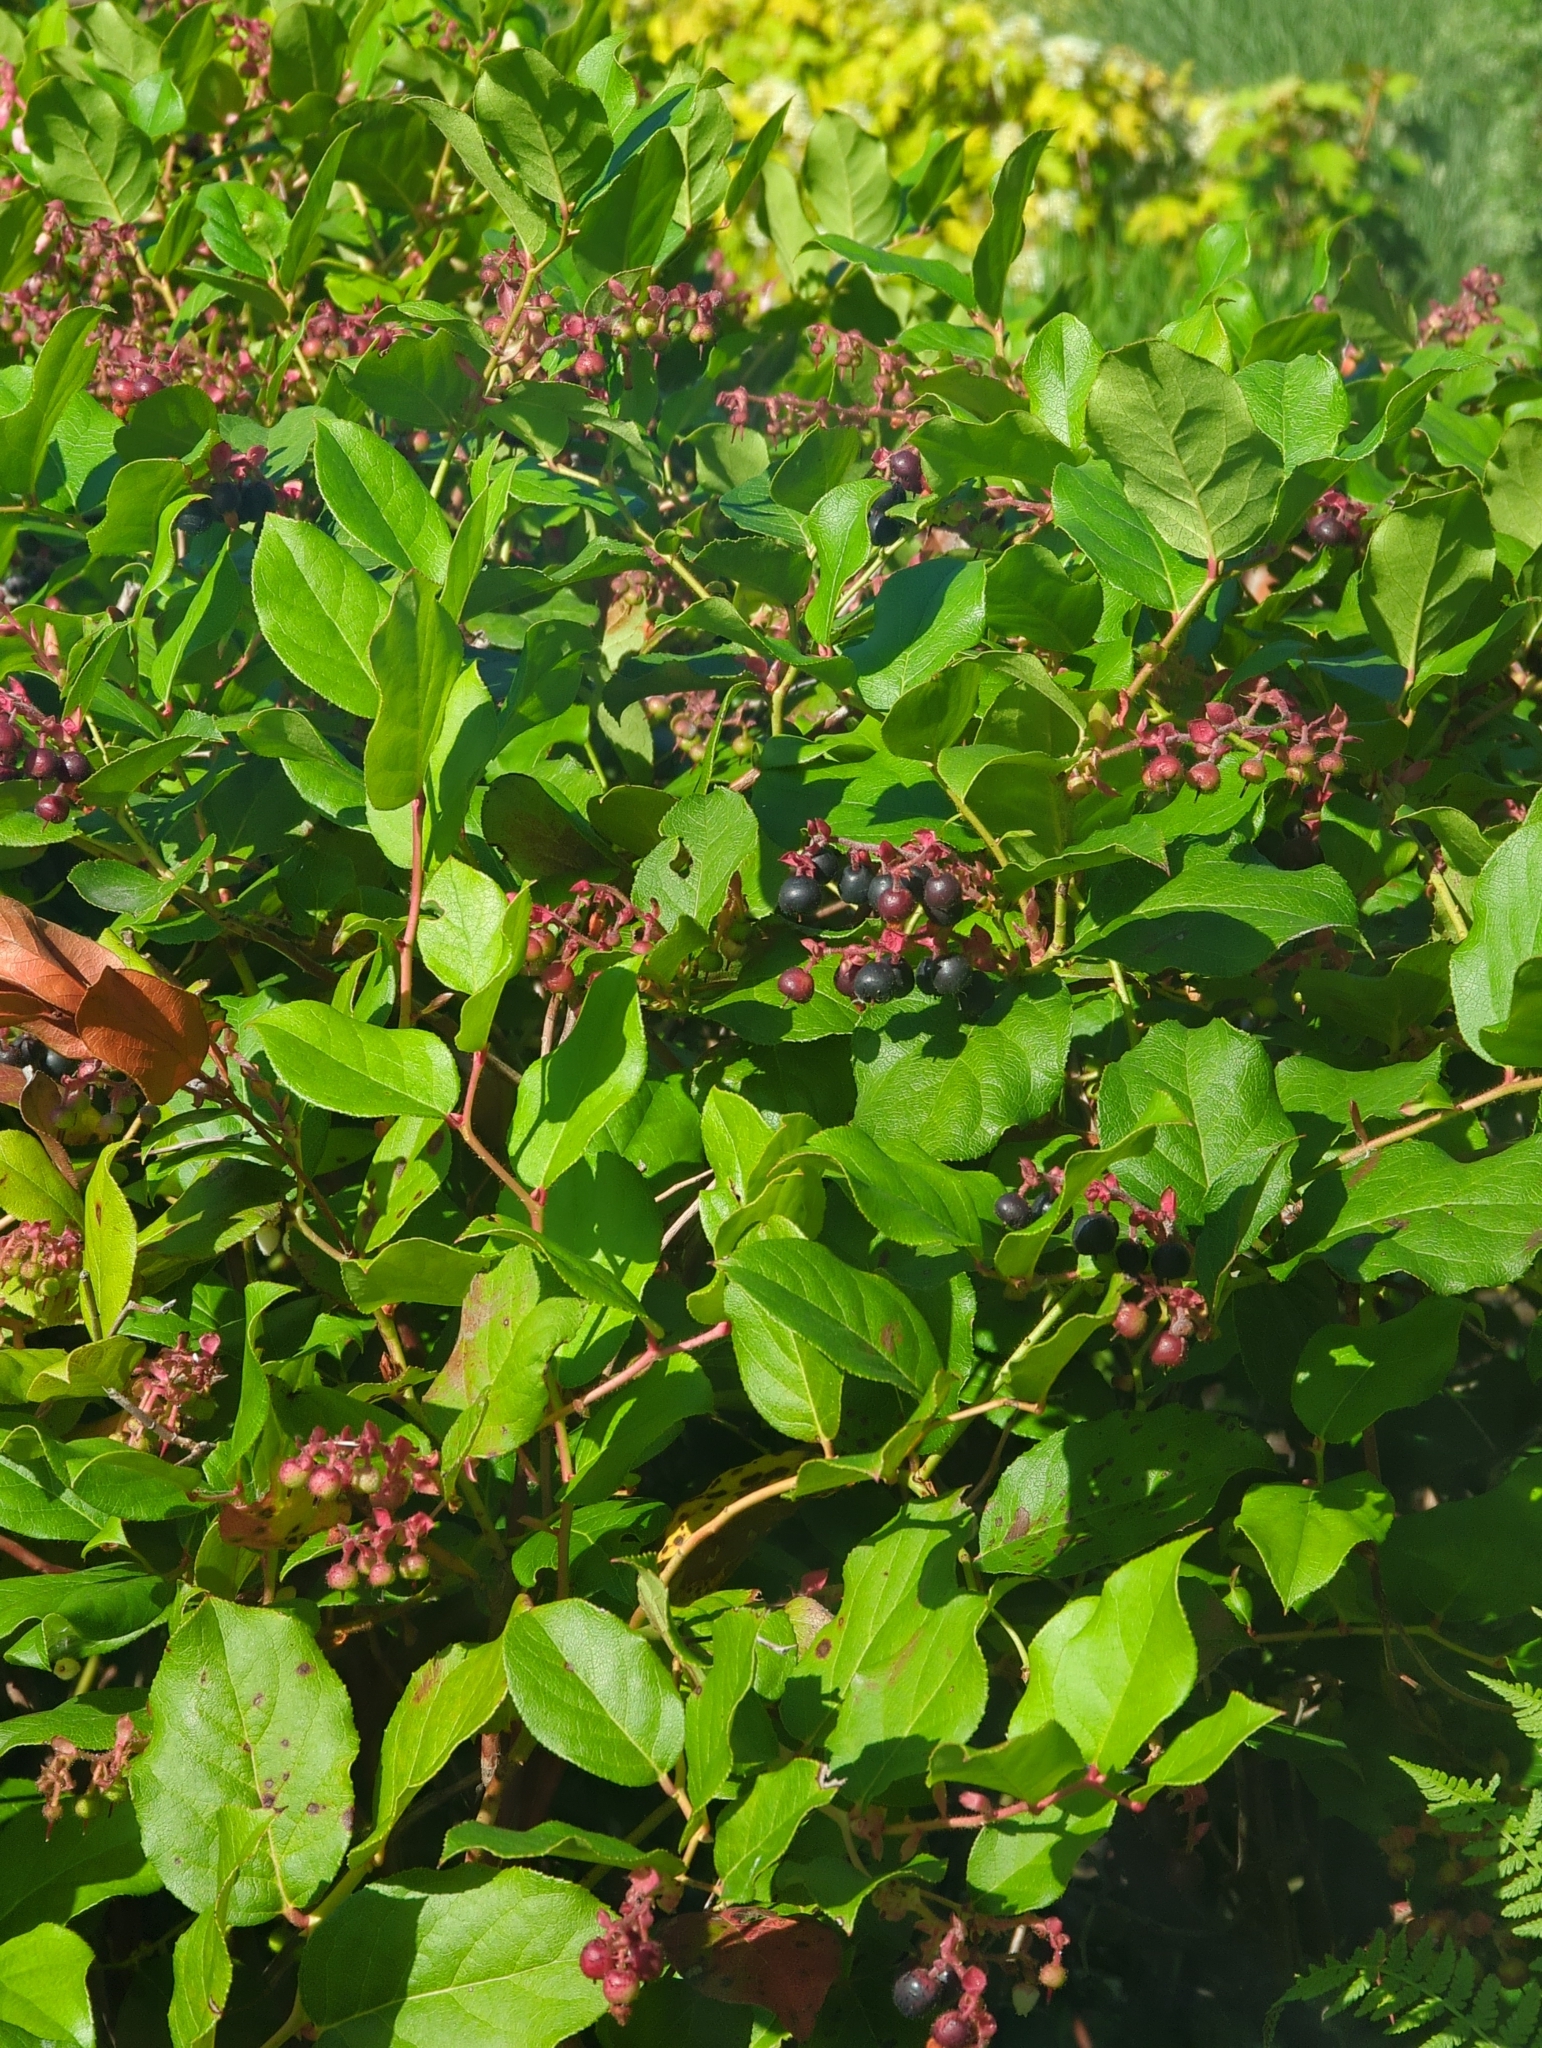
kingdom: Plantae
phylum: Tracheophyta
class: Magnoliopsida
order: Ericales
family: Ericaceae
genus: Gaultheria
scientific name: Gaultheria shallon
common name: Shallon
